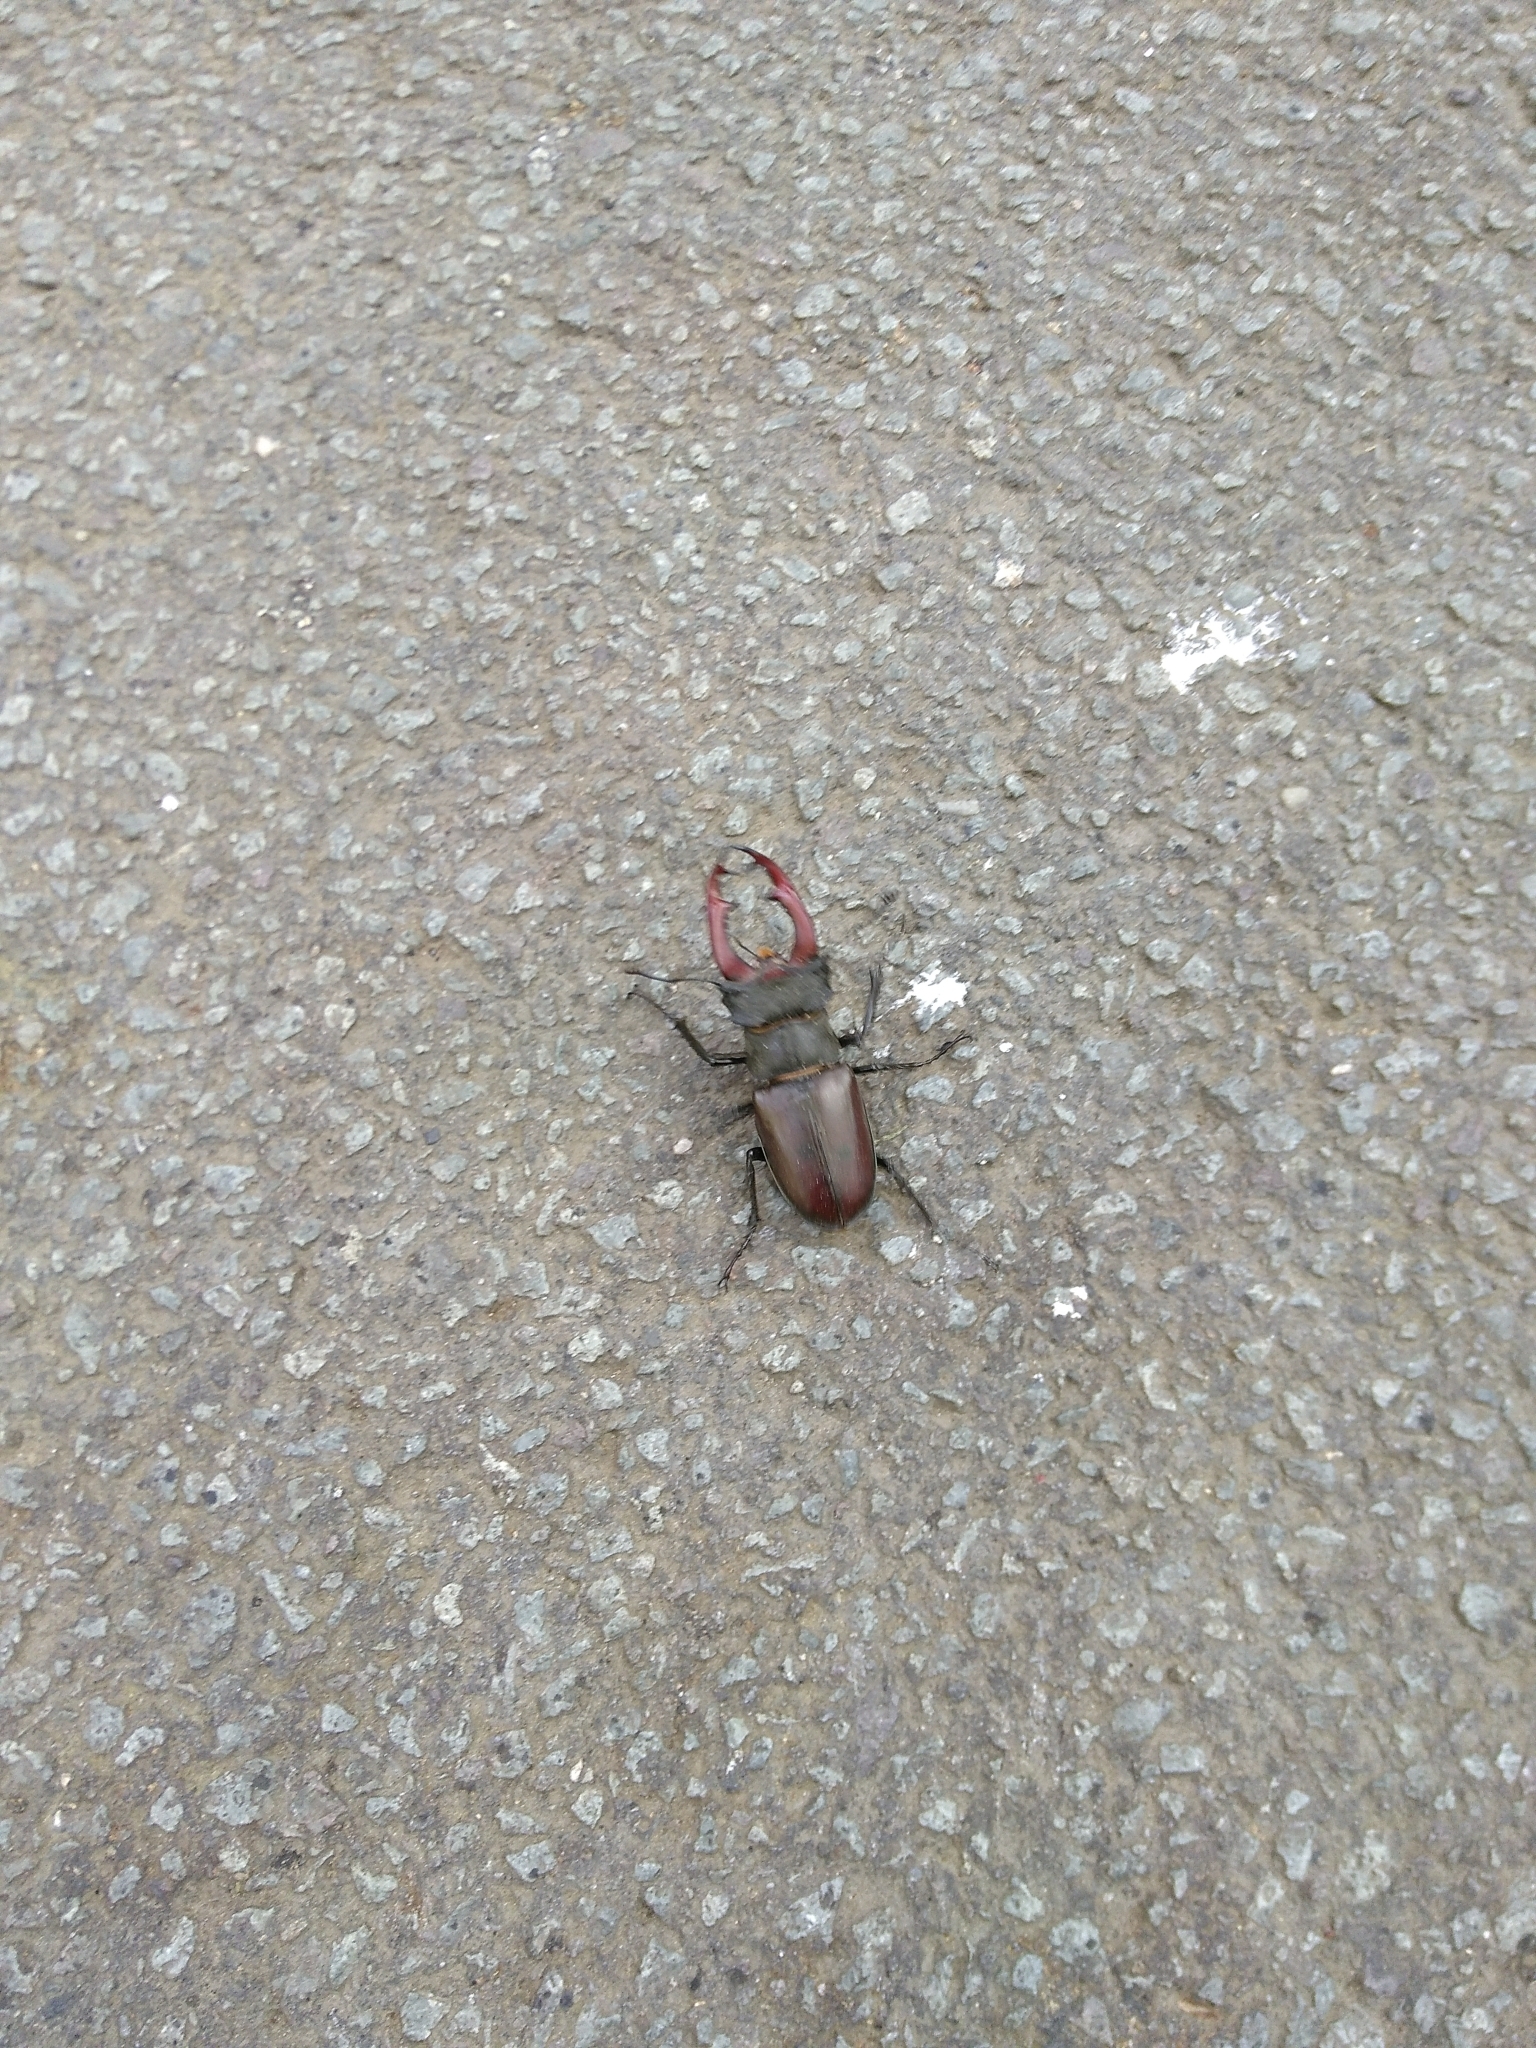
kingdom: Animalia
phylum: Arthropoda
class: Insecta
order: Coleoptera
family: Lucanidae
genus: Lucanus
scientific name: Lucanus cervus
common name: Stag beetle
